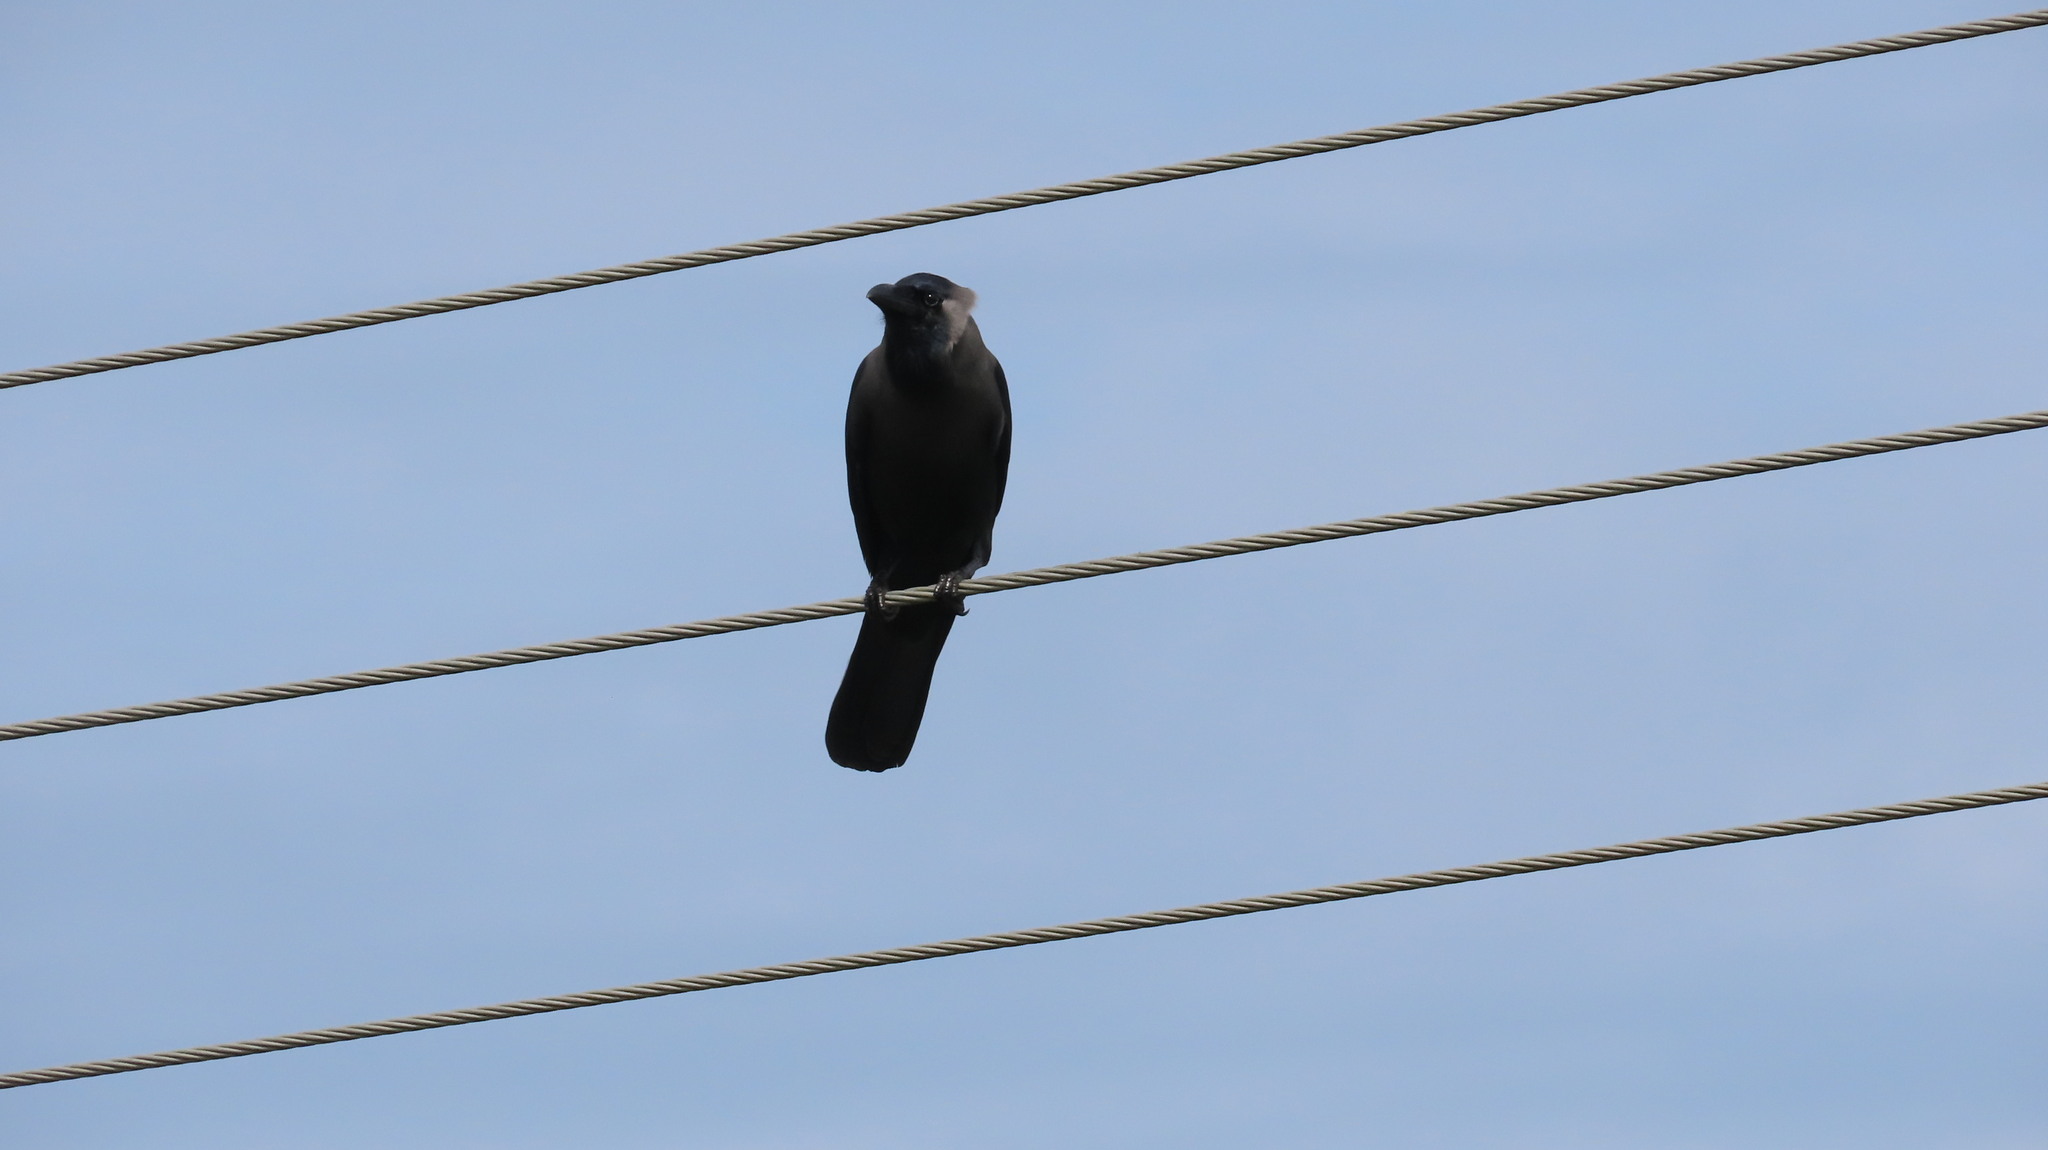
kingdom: Animalia
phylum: Chordata
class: Aves
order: Passeriformes
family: Corvidae
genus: Corvus
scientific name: Corvus splendens
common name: House crow
